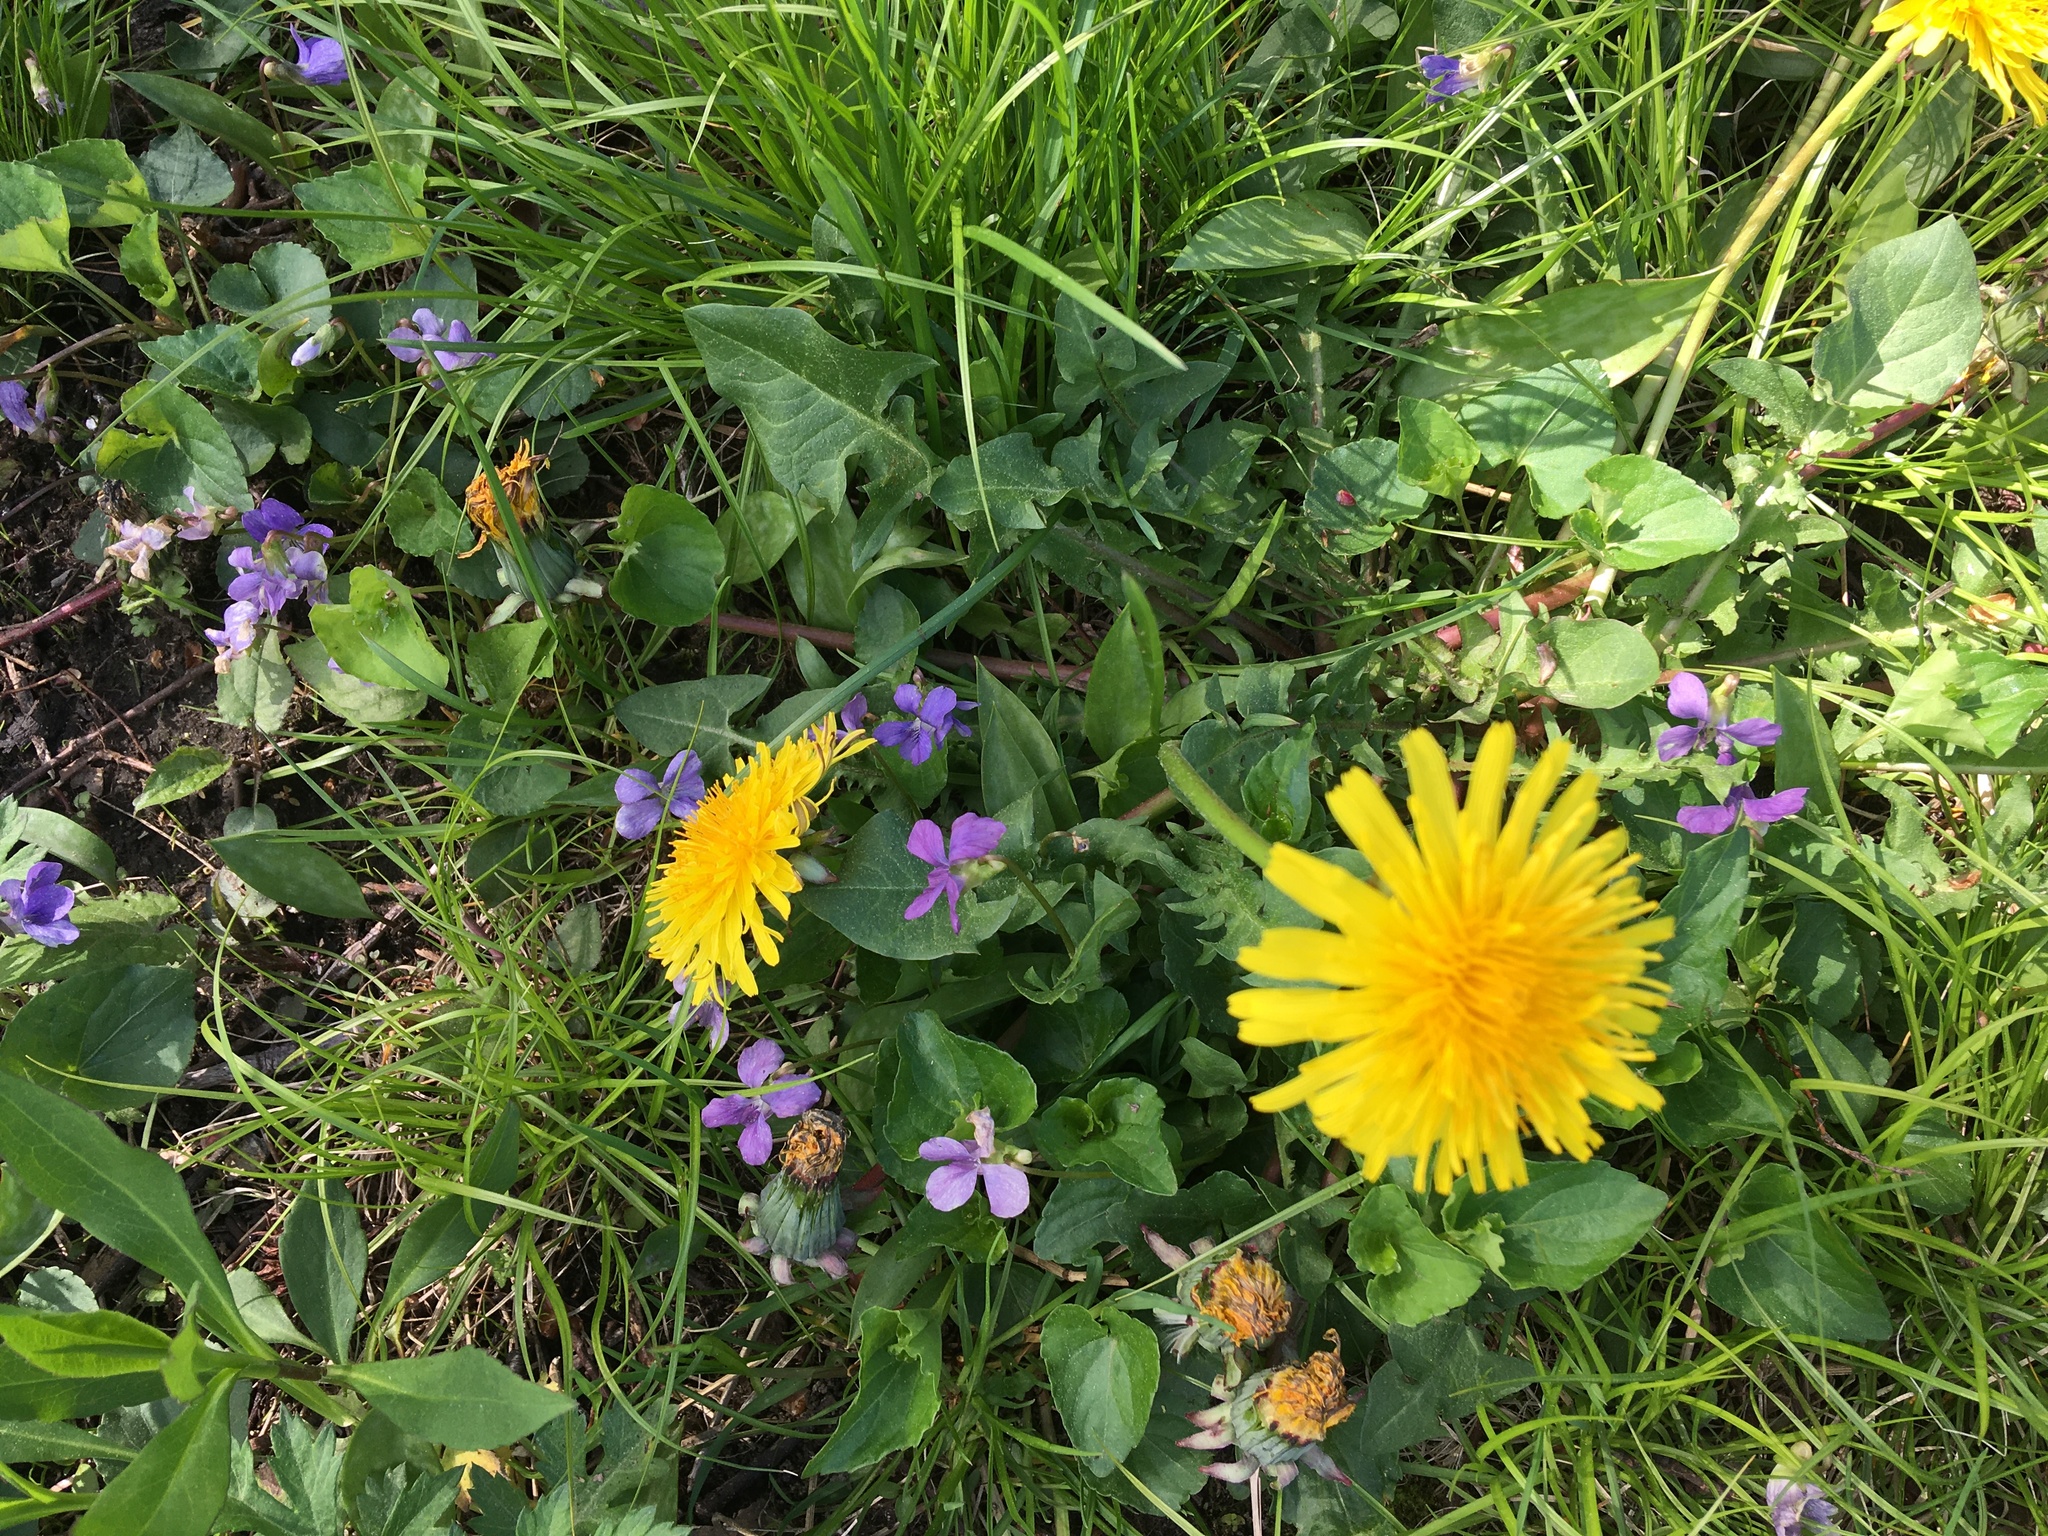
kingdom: Plantae
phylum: Tracheophyta
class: Magnoliopsida
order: Asterales
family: Asteraceae
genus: Taraxacum
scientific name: Taraxacum officinale
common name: Common dandelion
